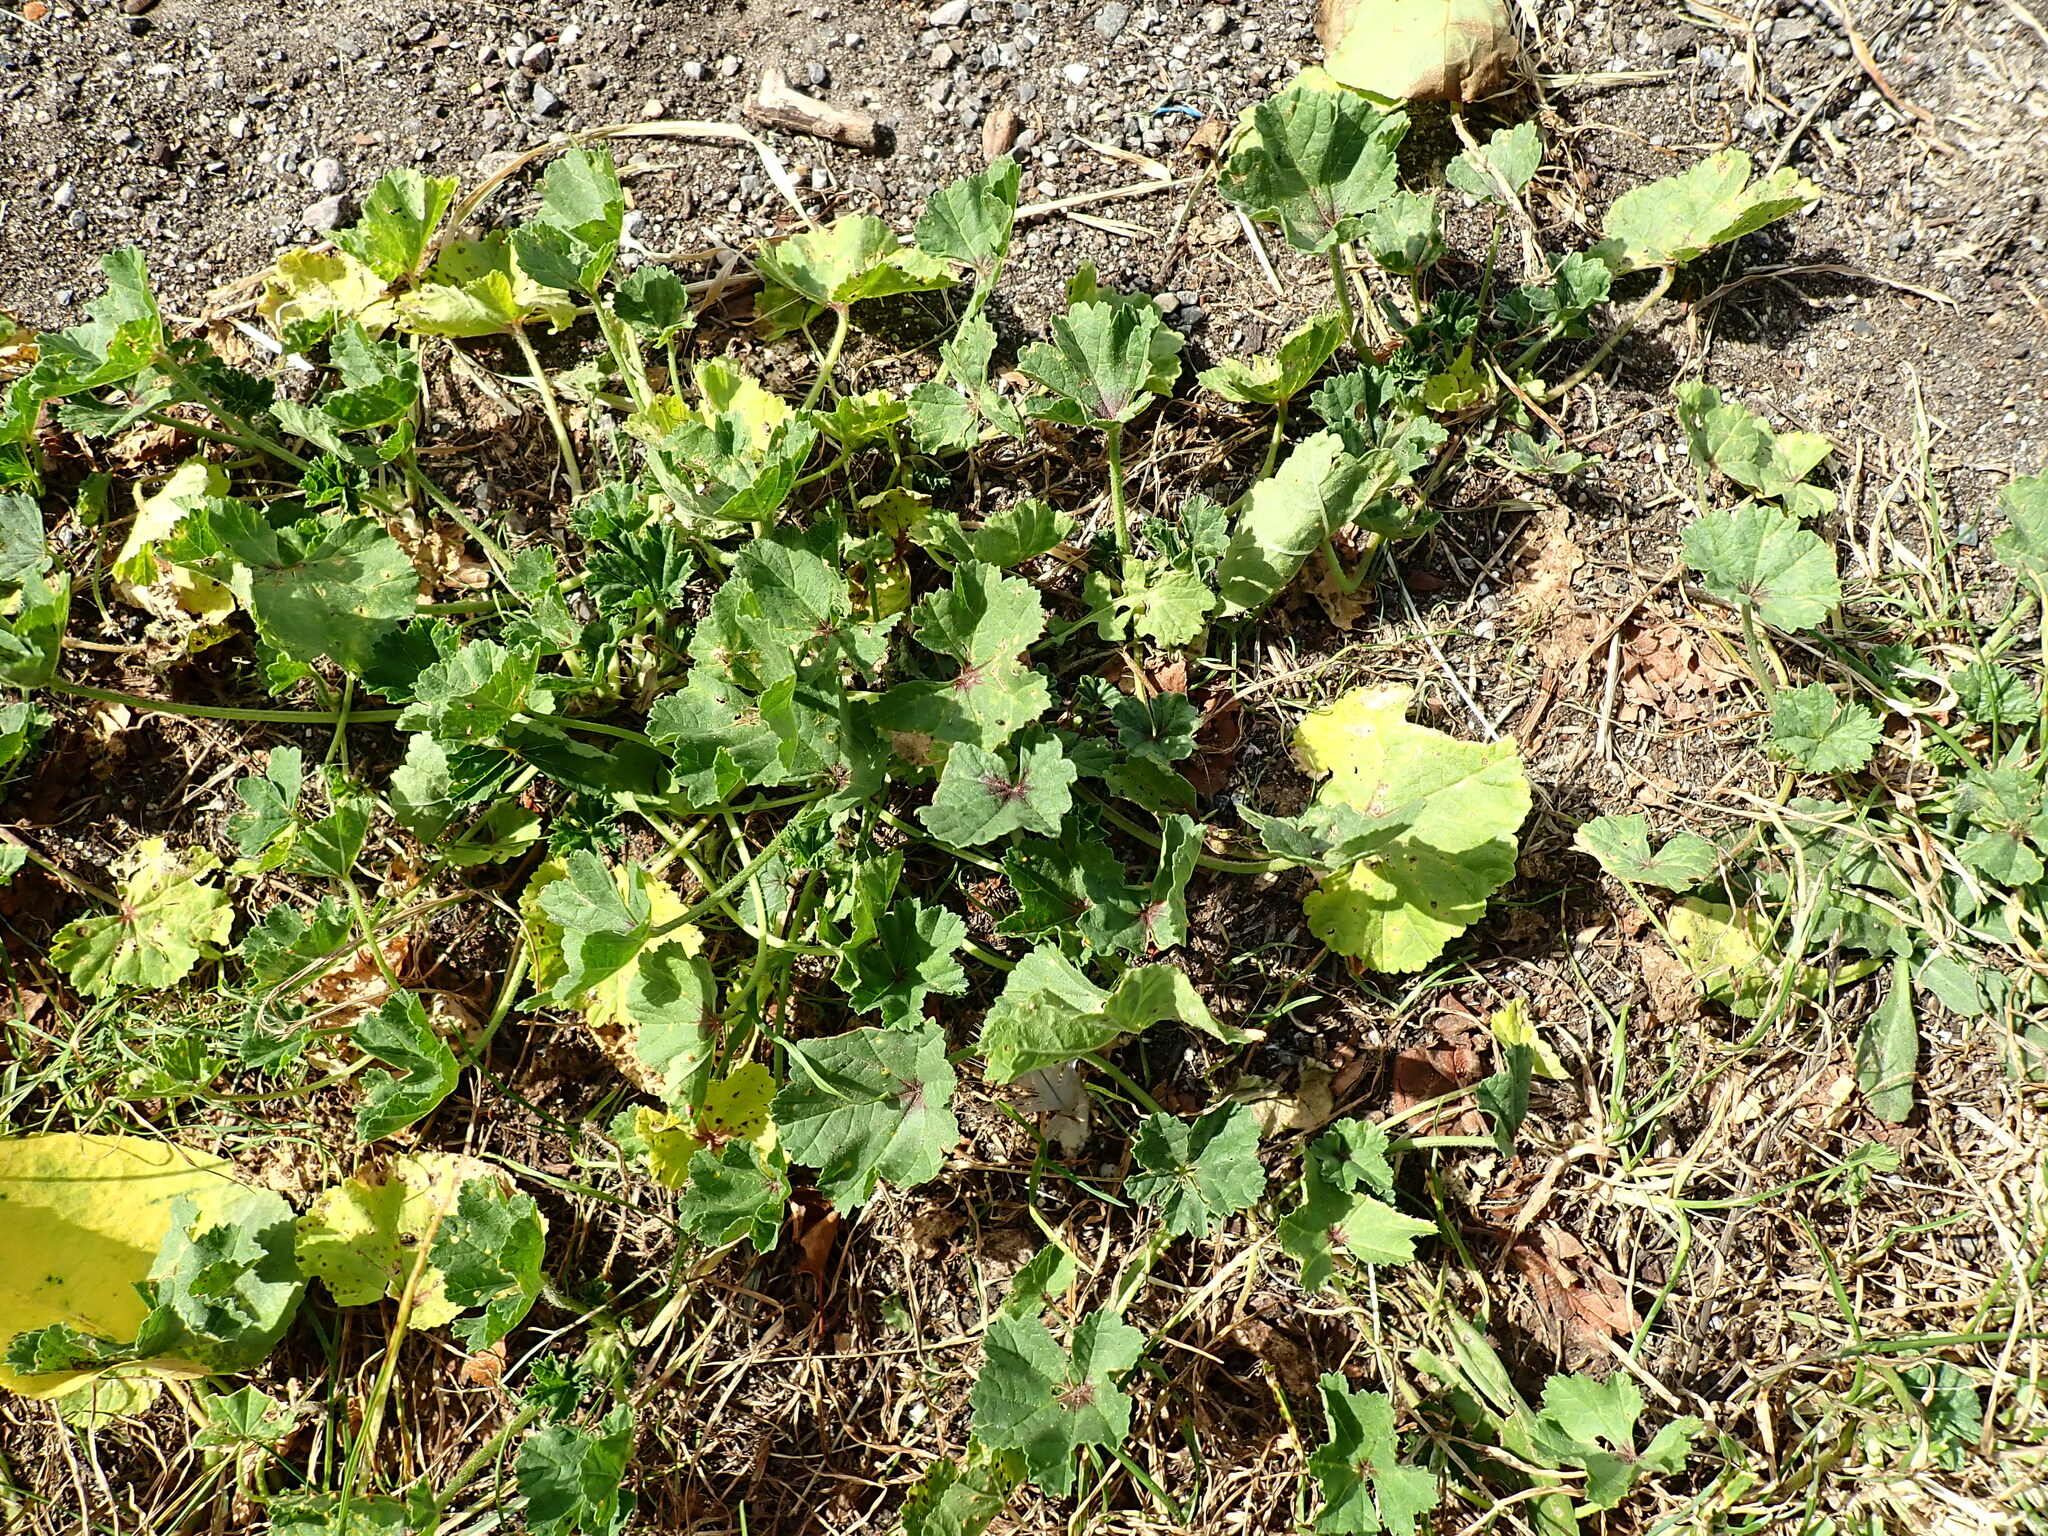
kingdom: Plantae
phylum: Tracheophyta
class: Magnoliopsida
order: Malvales
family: Malvaceae
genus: Malva
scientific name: Malva sylvestris
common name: Common mallow
